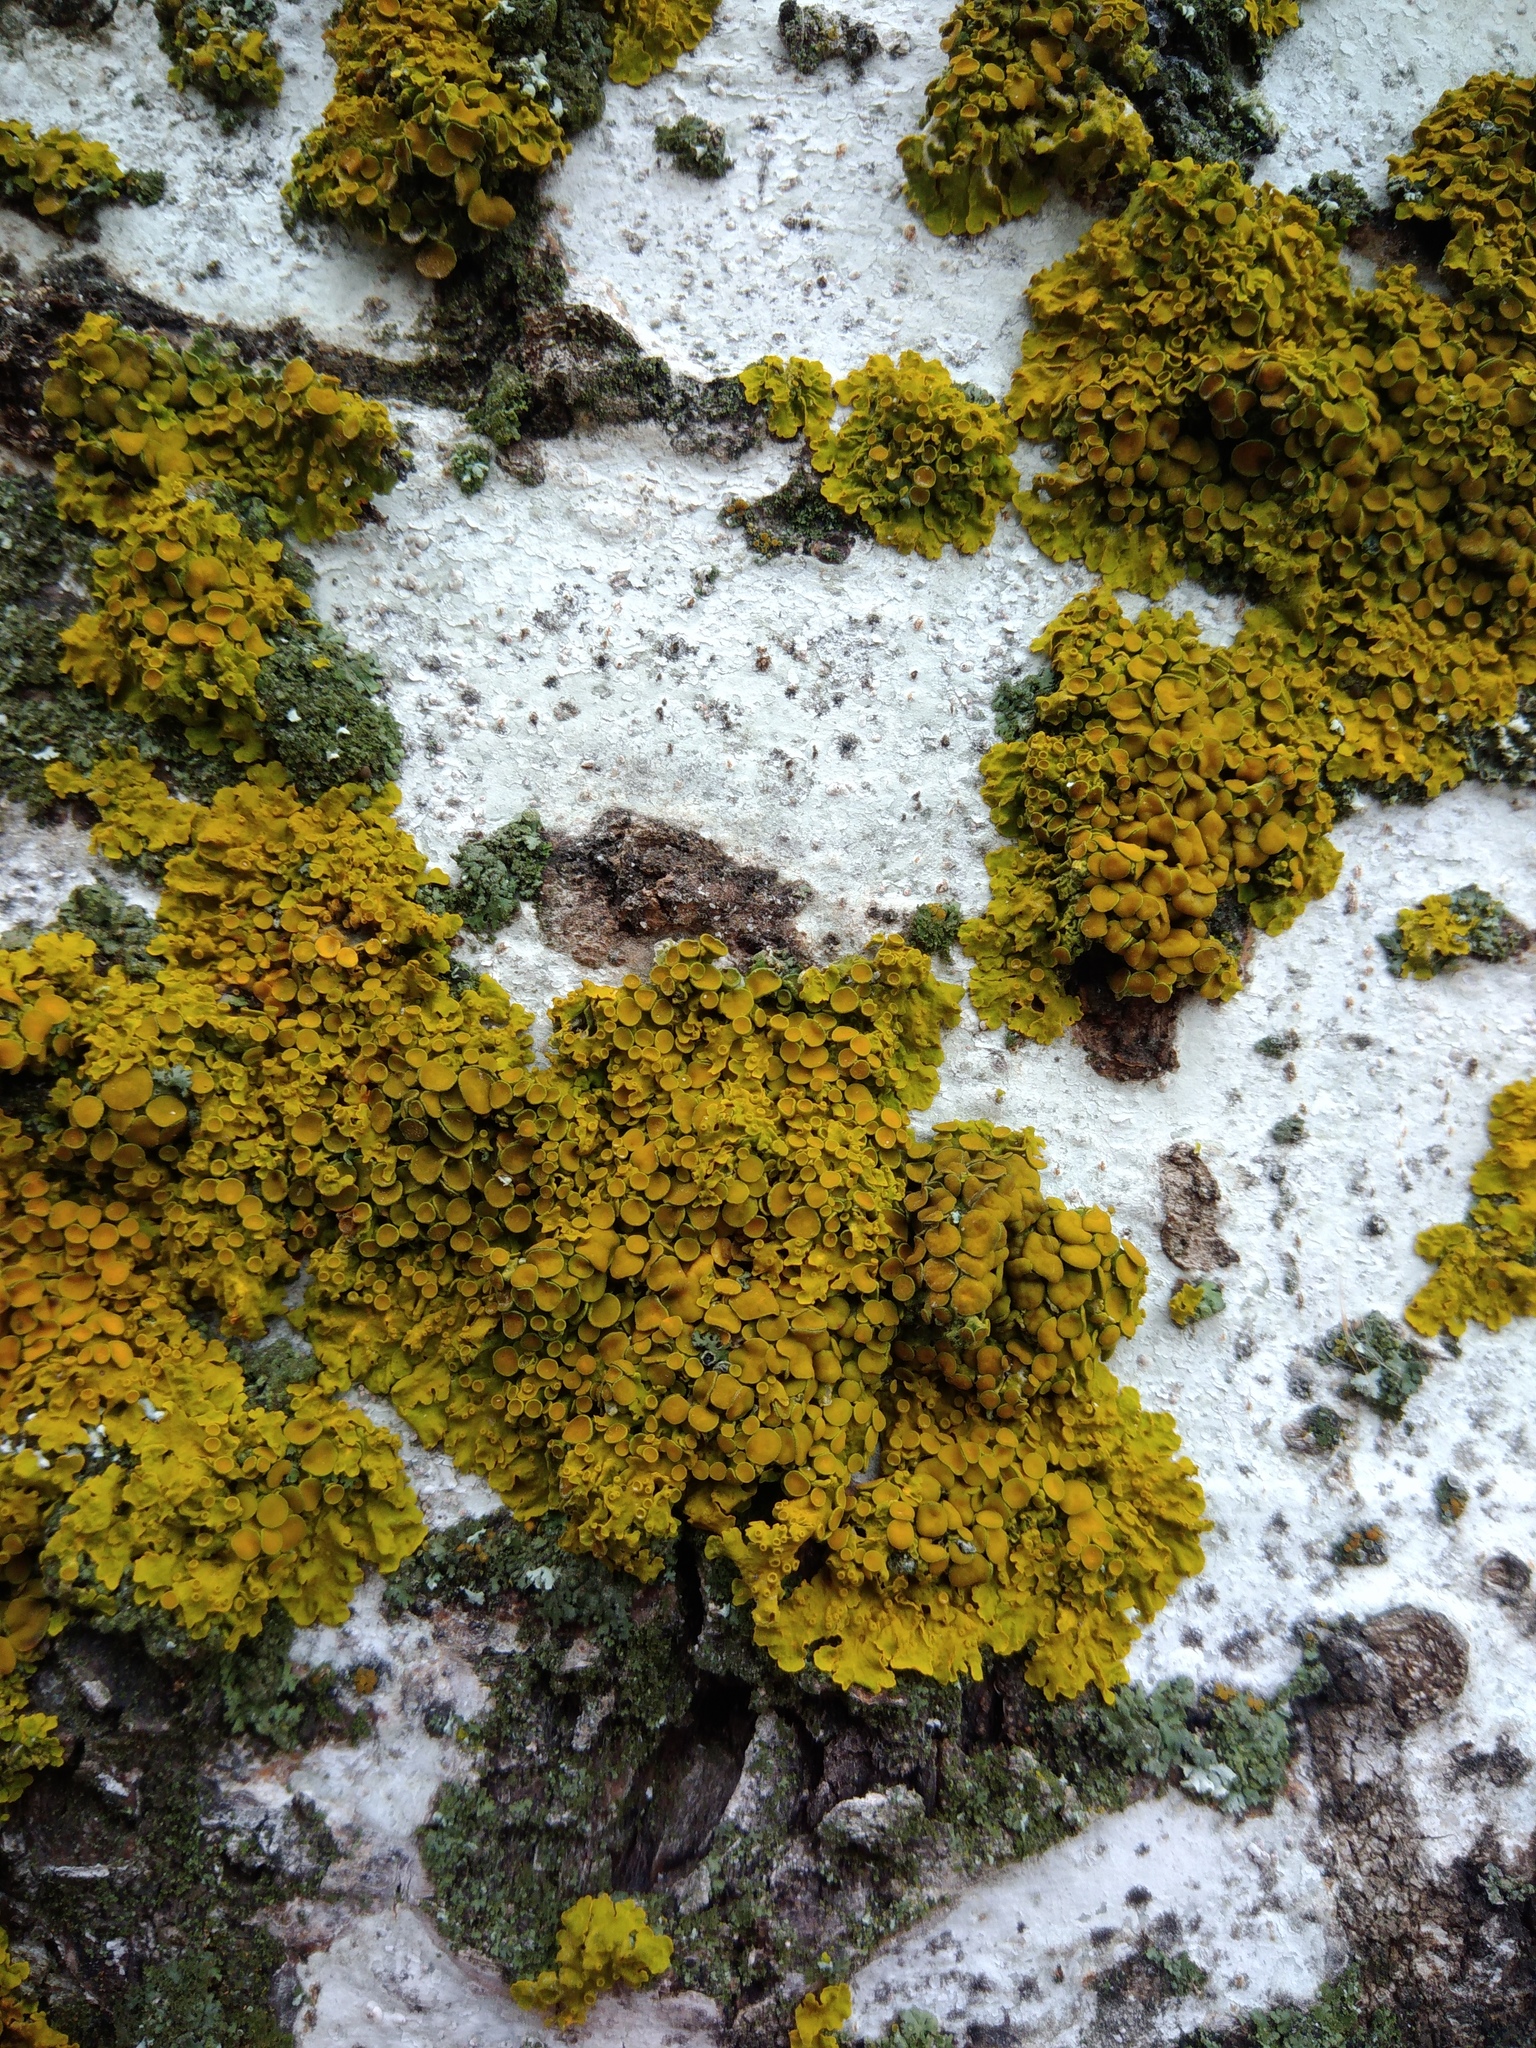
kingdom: Fungi
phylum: Ascomycota
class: Lecanoromycetes
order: Teloschistales
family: Teloschistaceae
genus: Xanthoria
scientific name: Xanthoria parietina
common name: Common orange lichen
